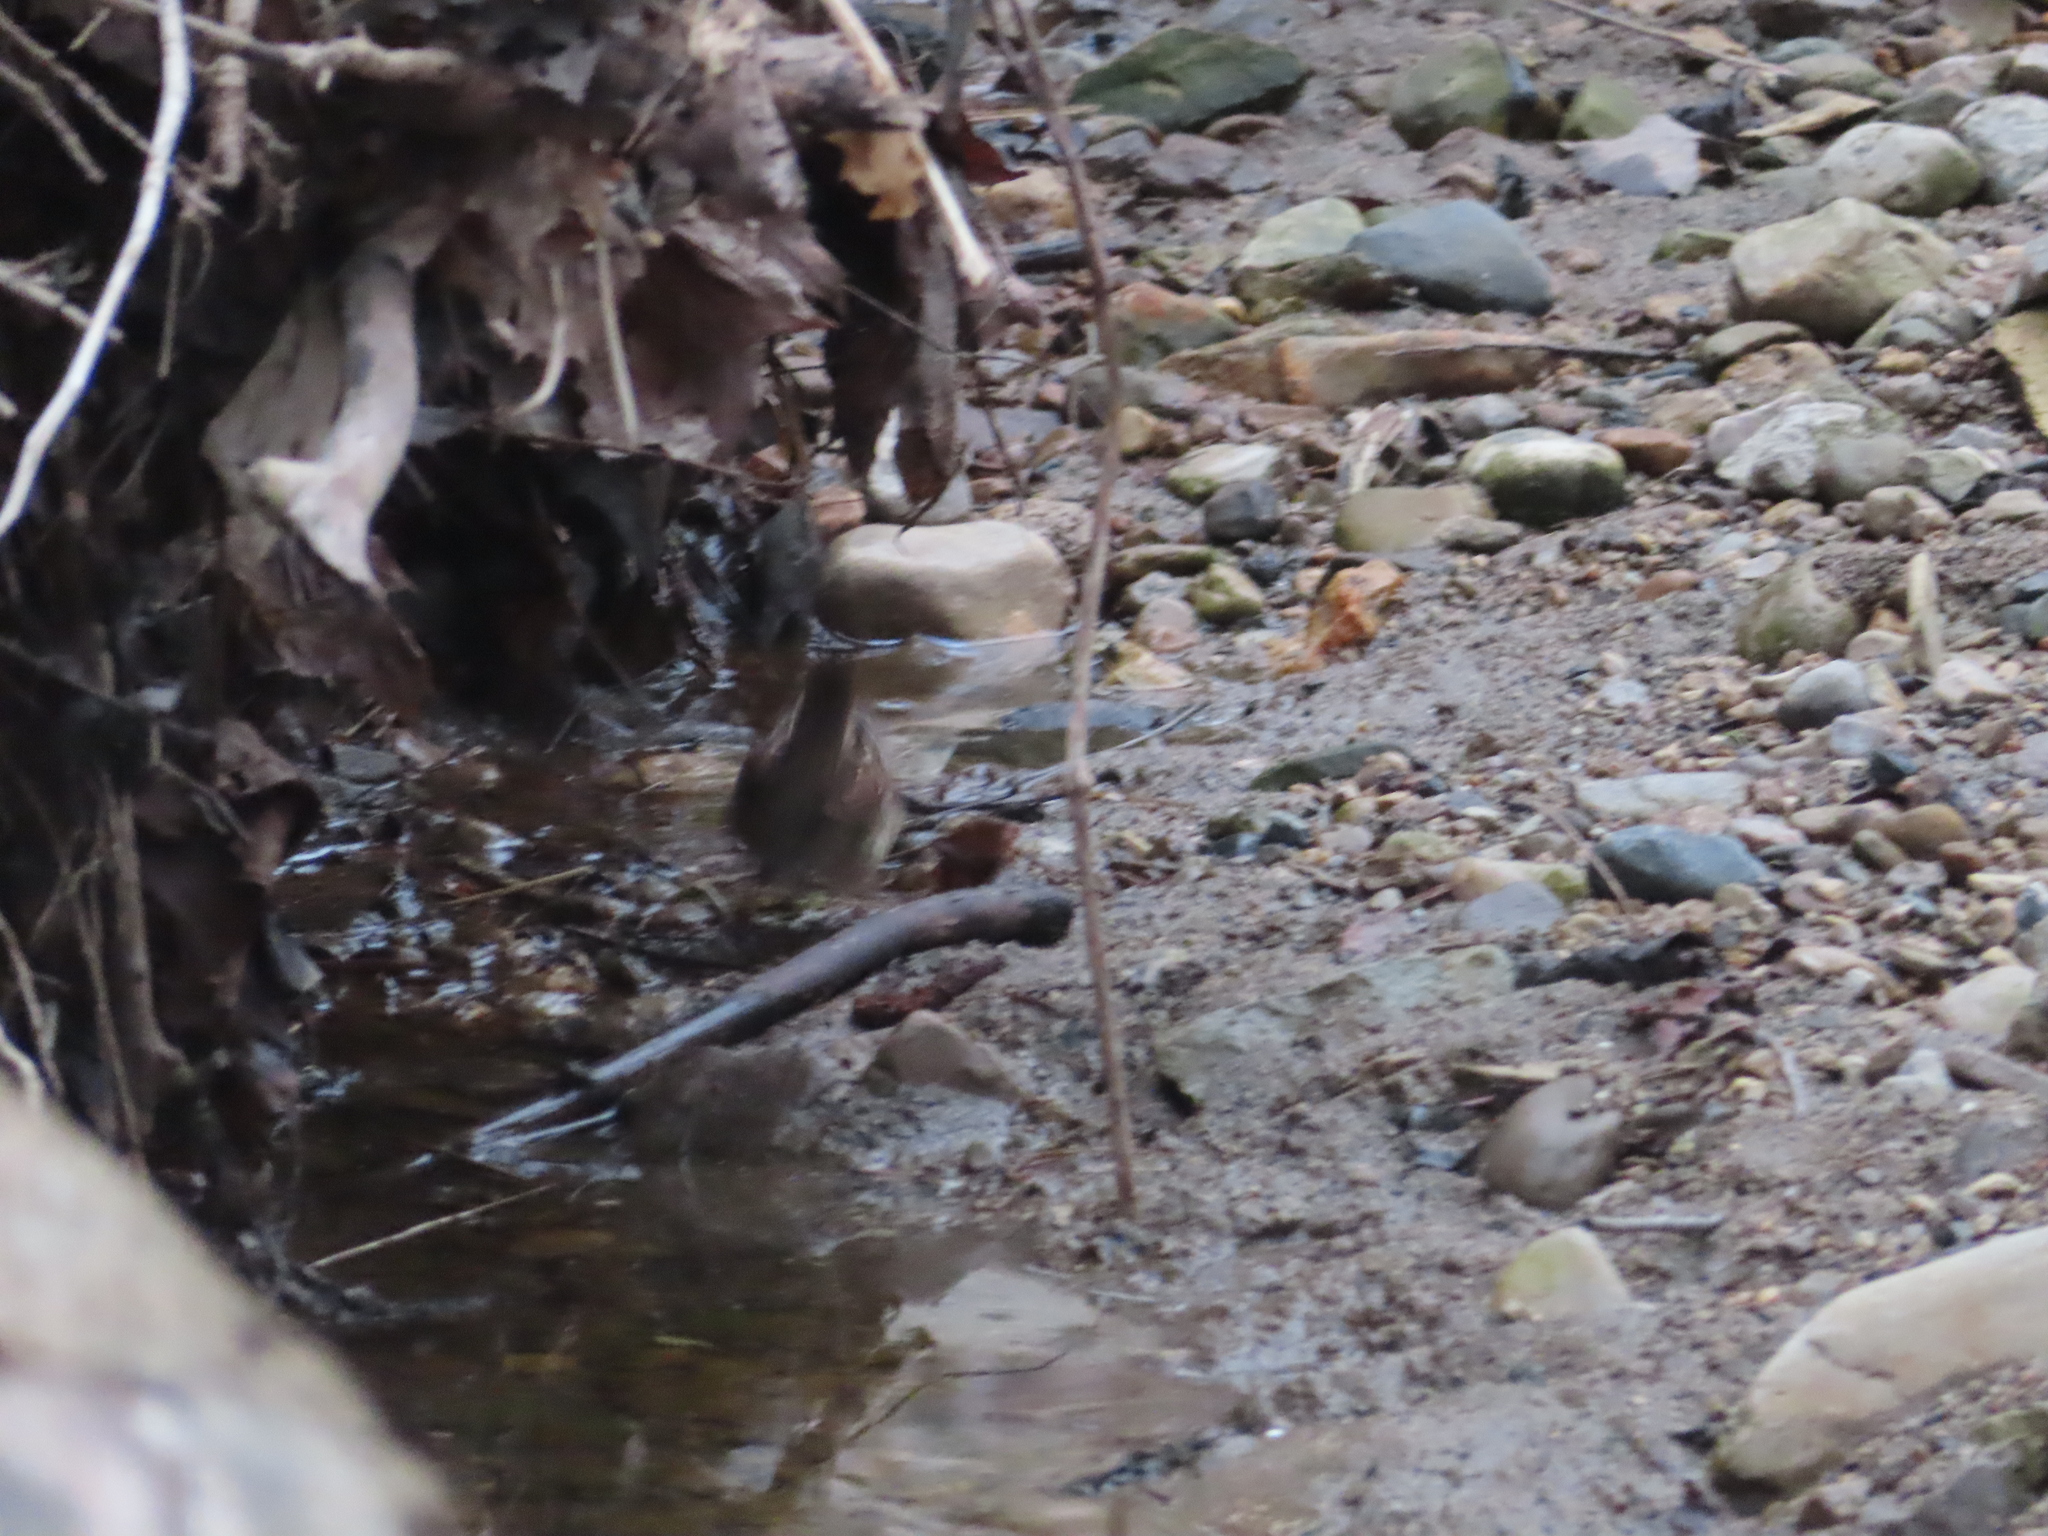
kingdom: Animalia
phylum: Chordata
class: Aves
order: Passeriformes
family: Passerellidae
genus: Melospiza
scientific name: Melospiza georgiana
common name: Swamp sparrow
